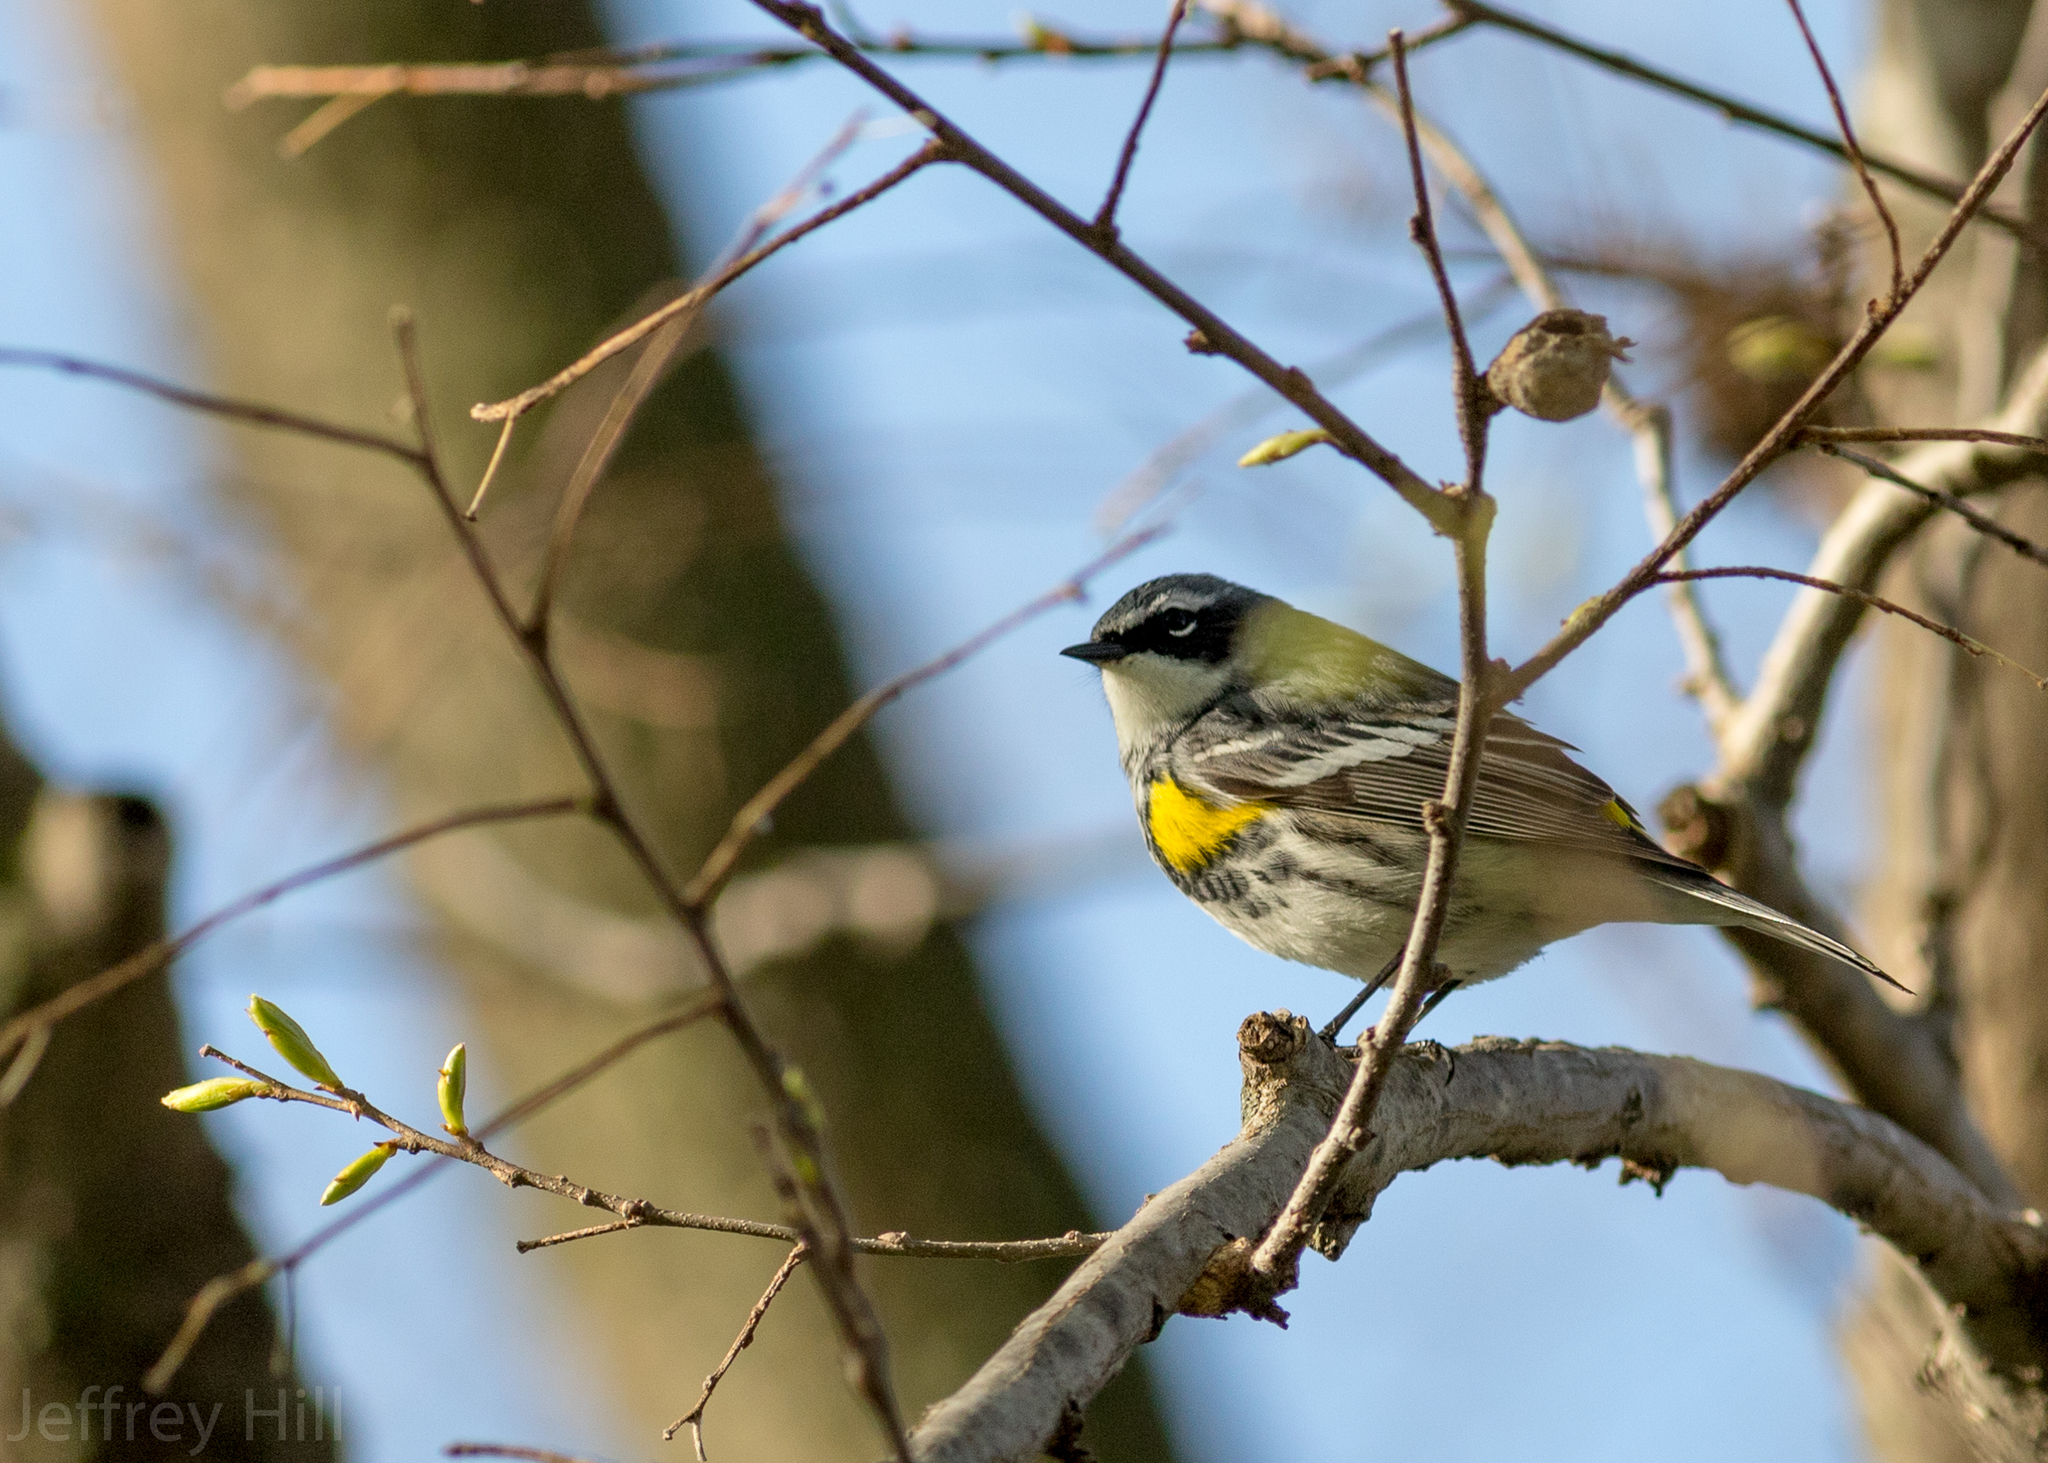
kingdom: Animalia
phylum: Chordata
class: Aves
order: Passeriformes
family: Parulidae
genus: Setophaga
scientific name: Setophaga coronata
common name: Myrtle warbler
